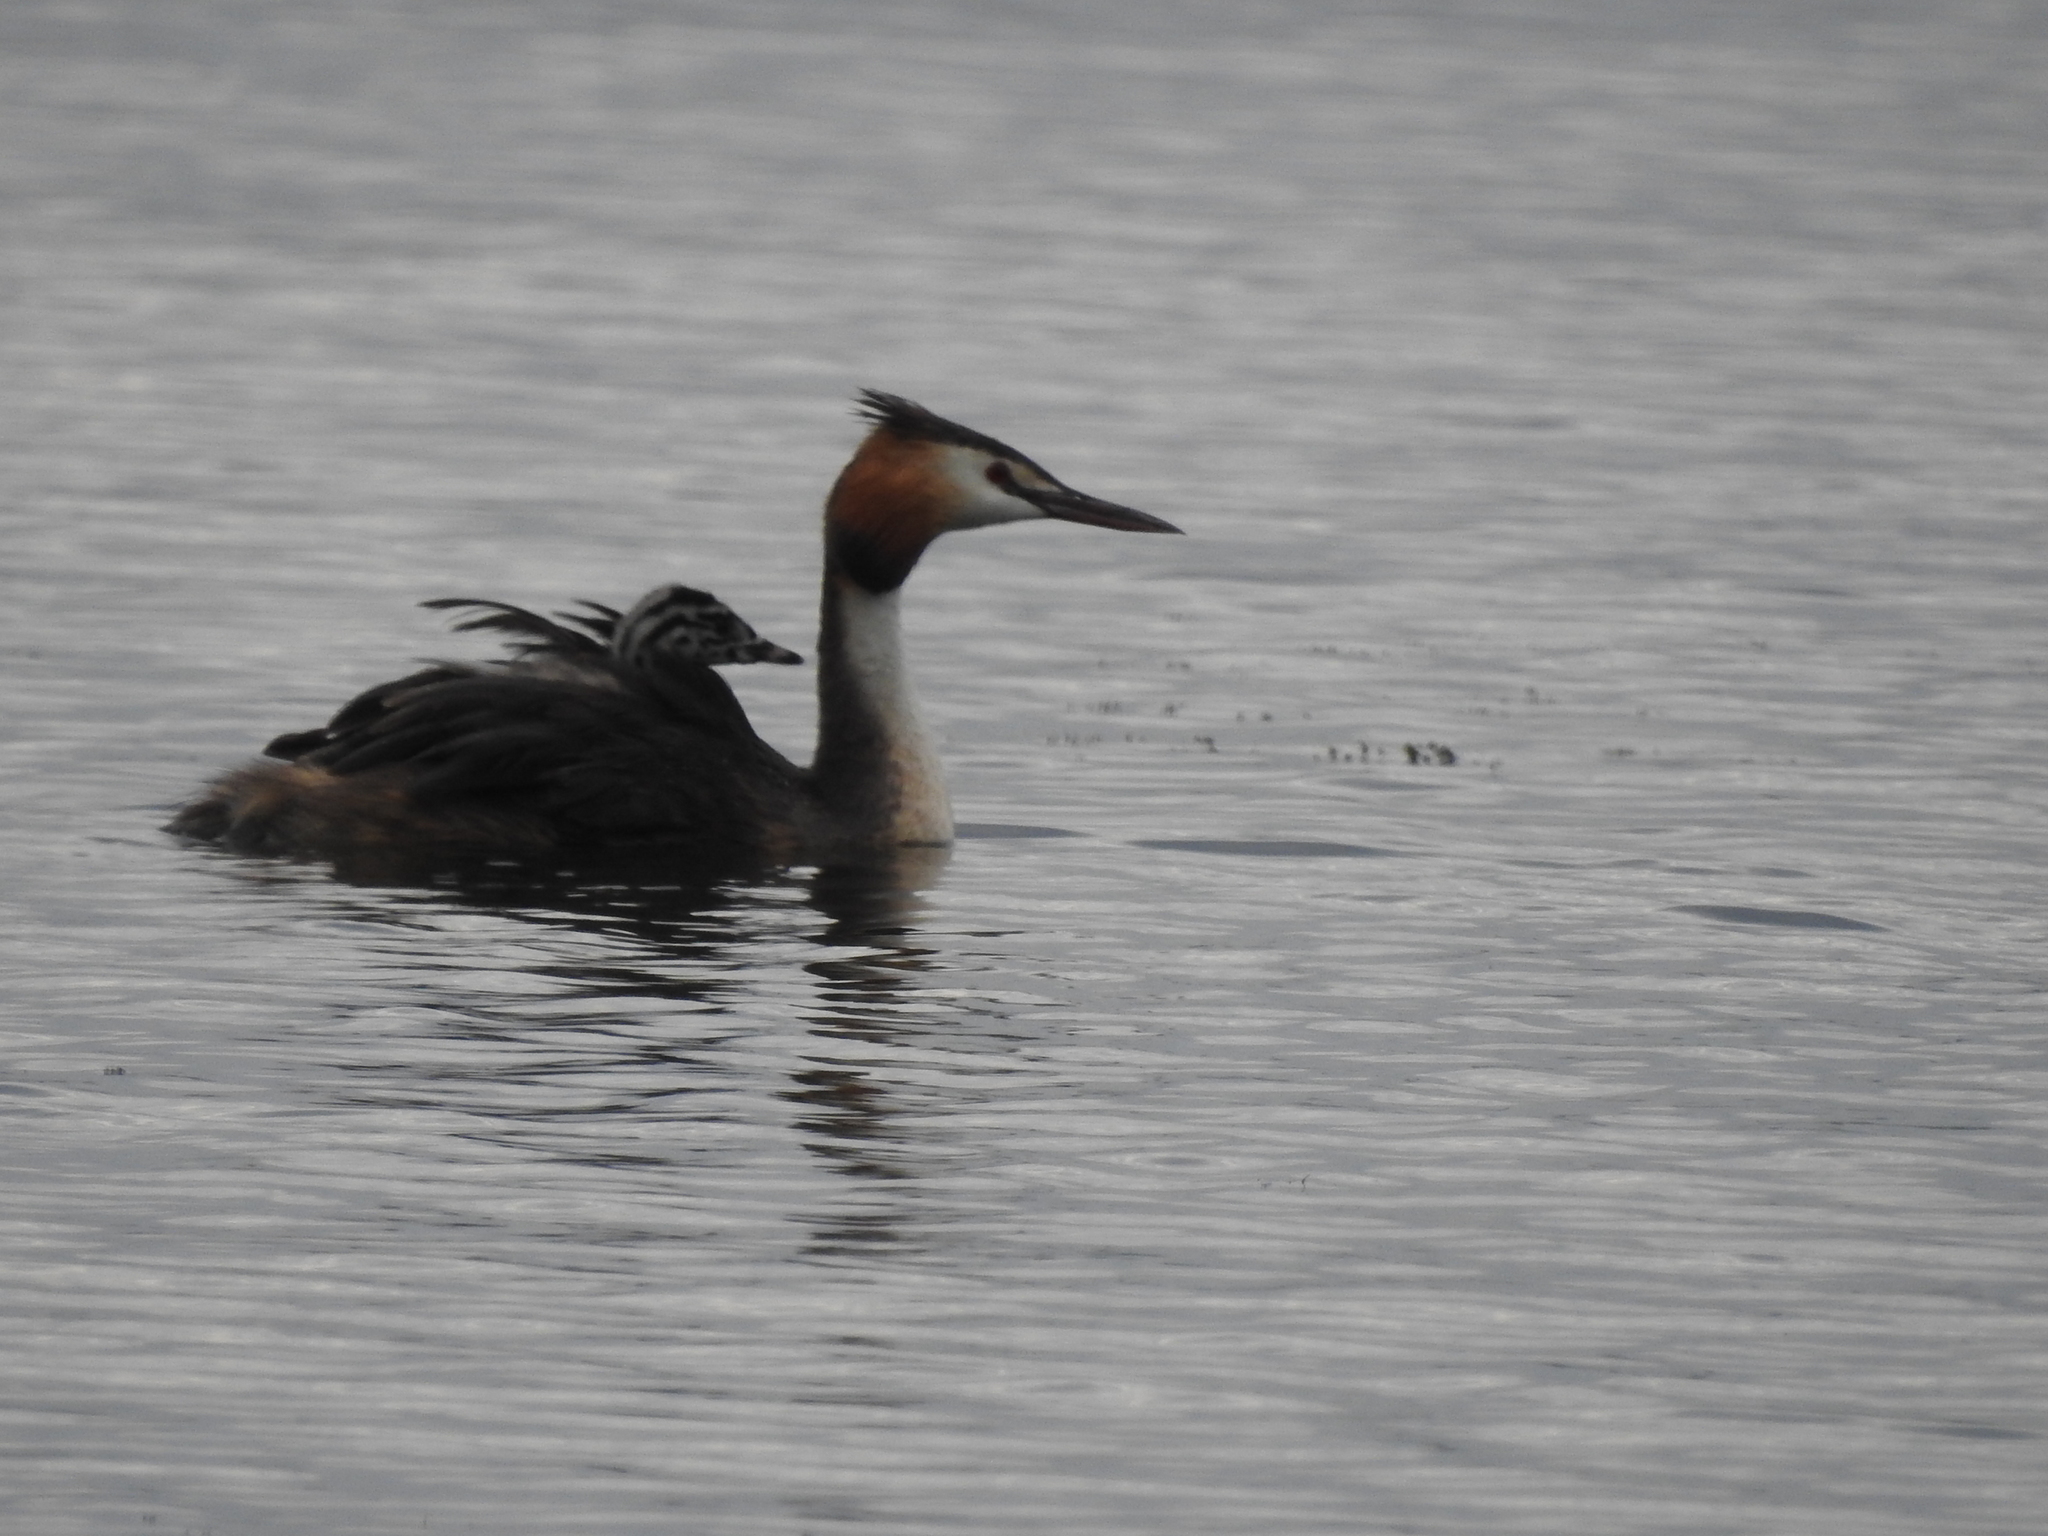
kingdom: Animalia
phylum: Chordata
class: Aves
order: Podicipediformes
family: Podicipedidae
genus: Podiceps
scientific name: Podiceps cristatus
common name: Great crested grebe
